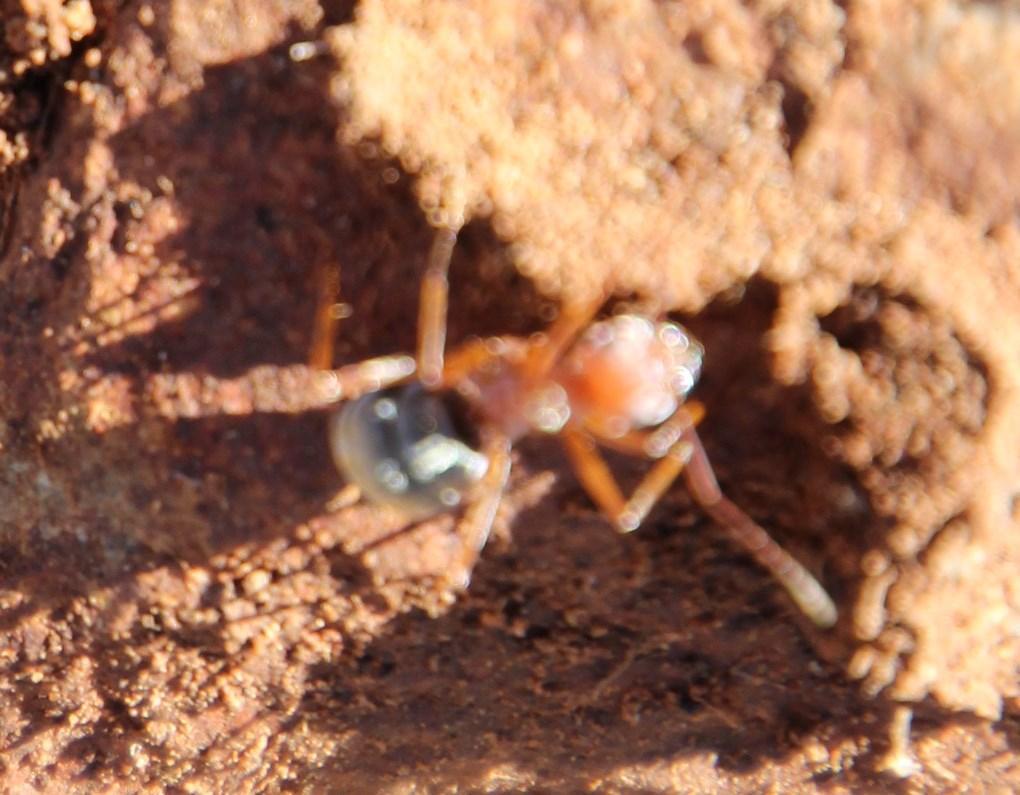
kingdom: Animalia
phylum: Arthropoda
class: Insecta
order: Hymenoptera
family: Formicidae
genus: Anoplolepis
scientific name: Anoplolepis custodiens
